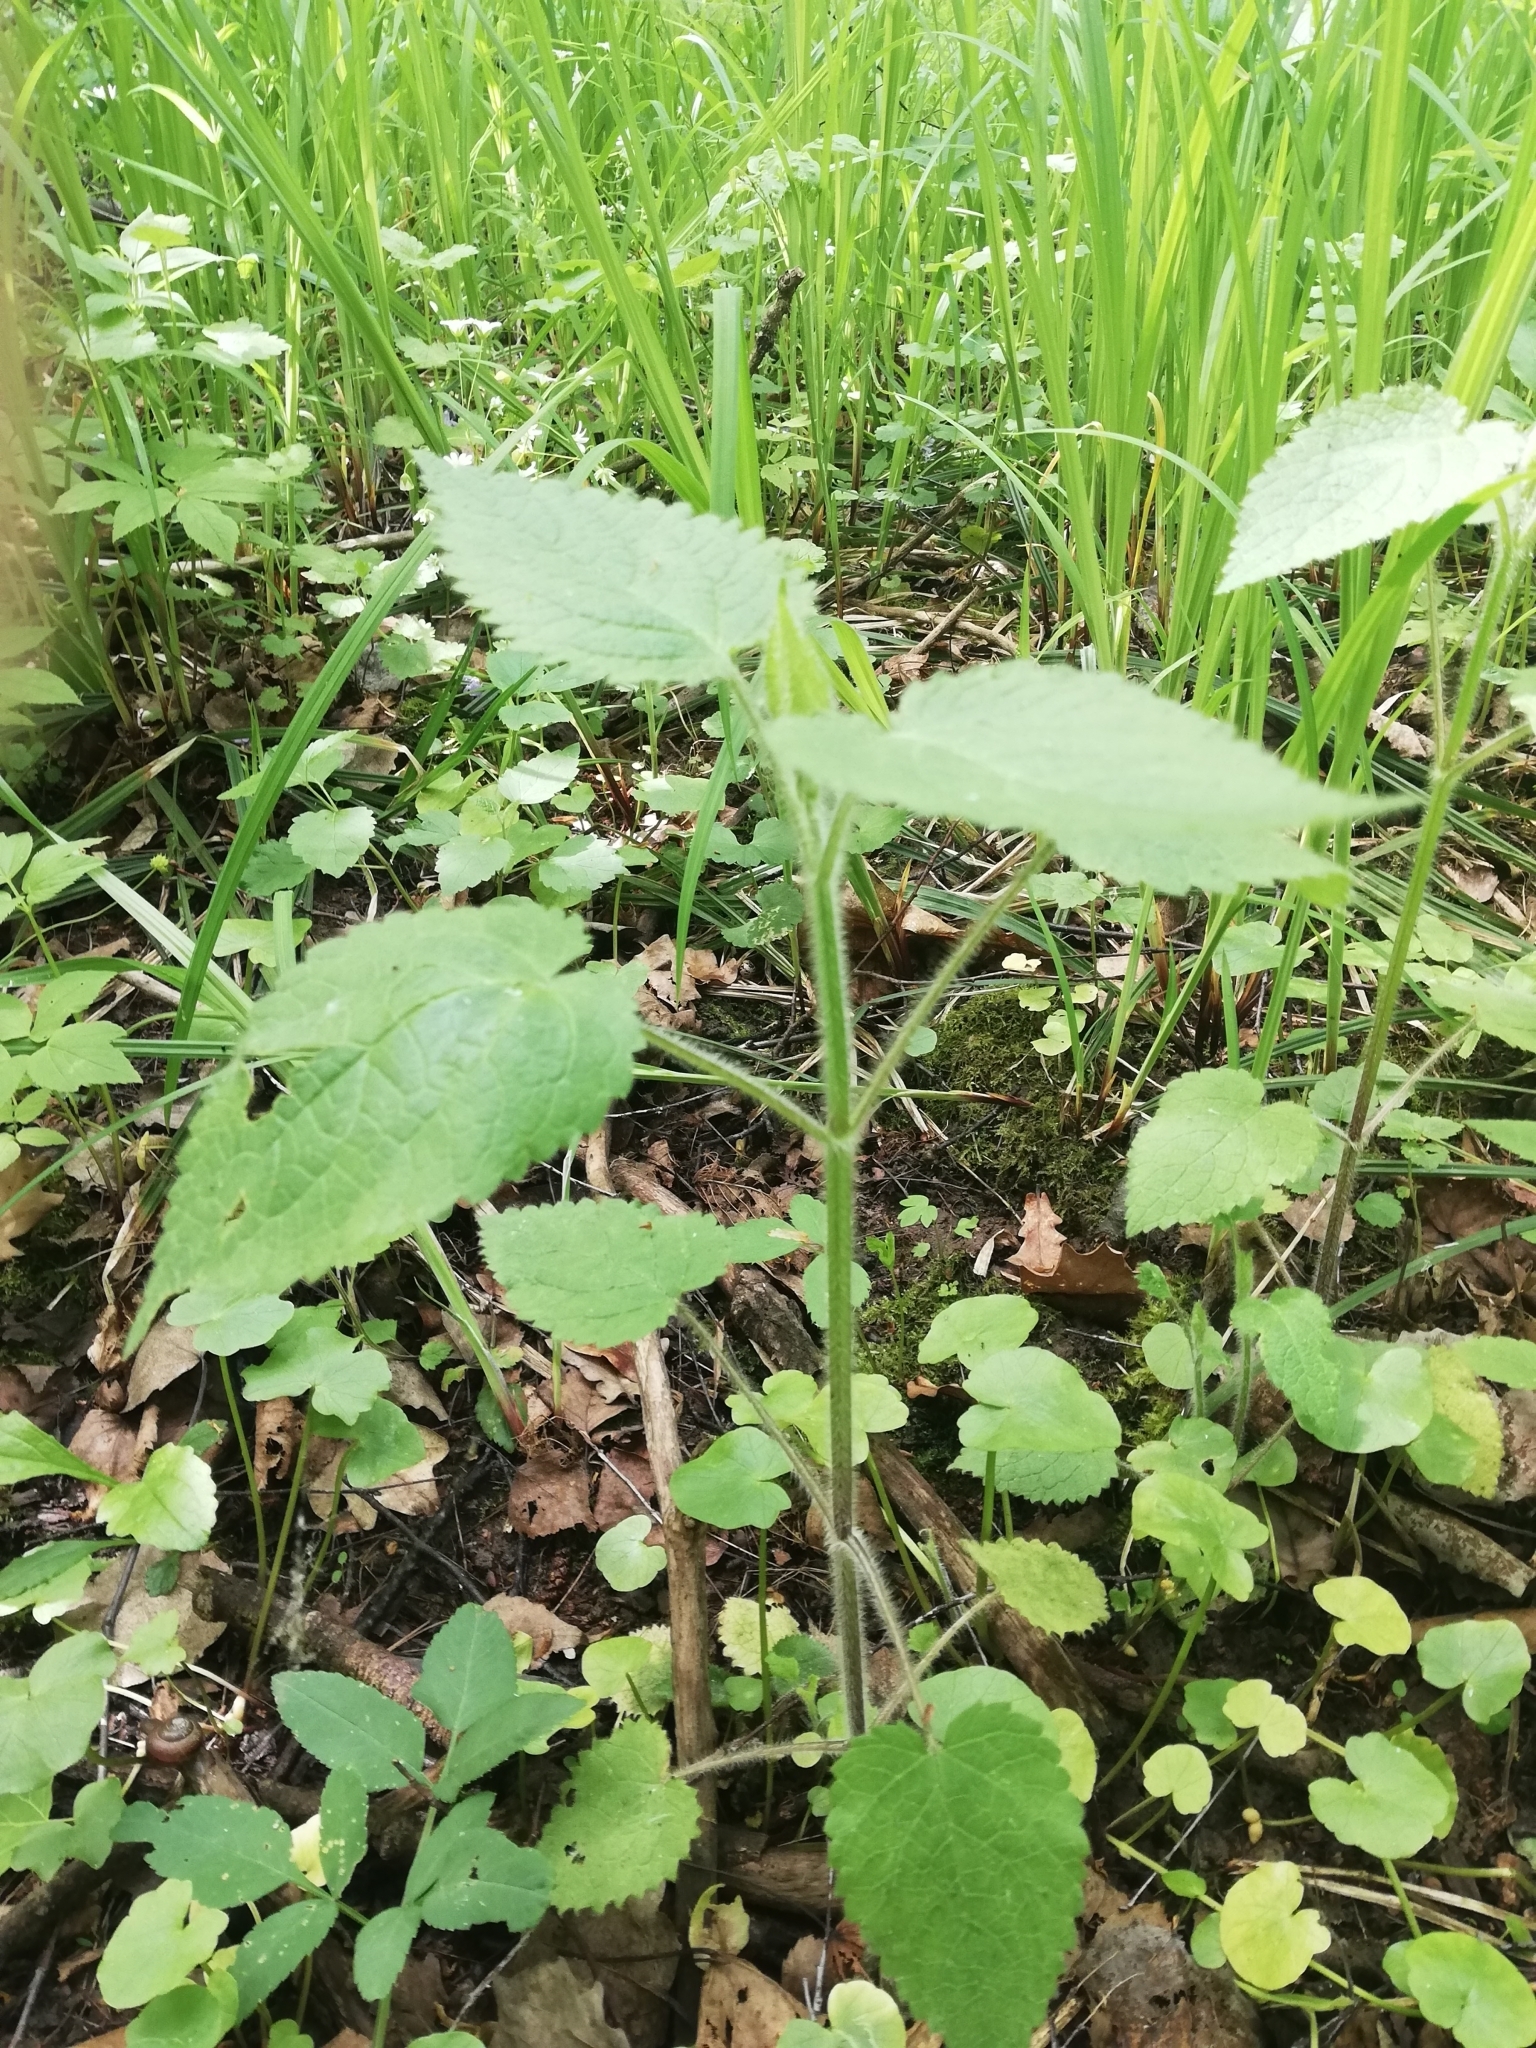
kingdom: Plantae
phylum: Tracheophyta
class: Magnoliopsida
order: Lamiales
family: Lamiaceae
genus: Stachys
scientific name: Stachys sylvatica
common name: Hedge woundwort
